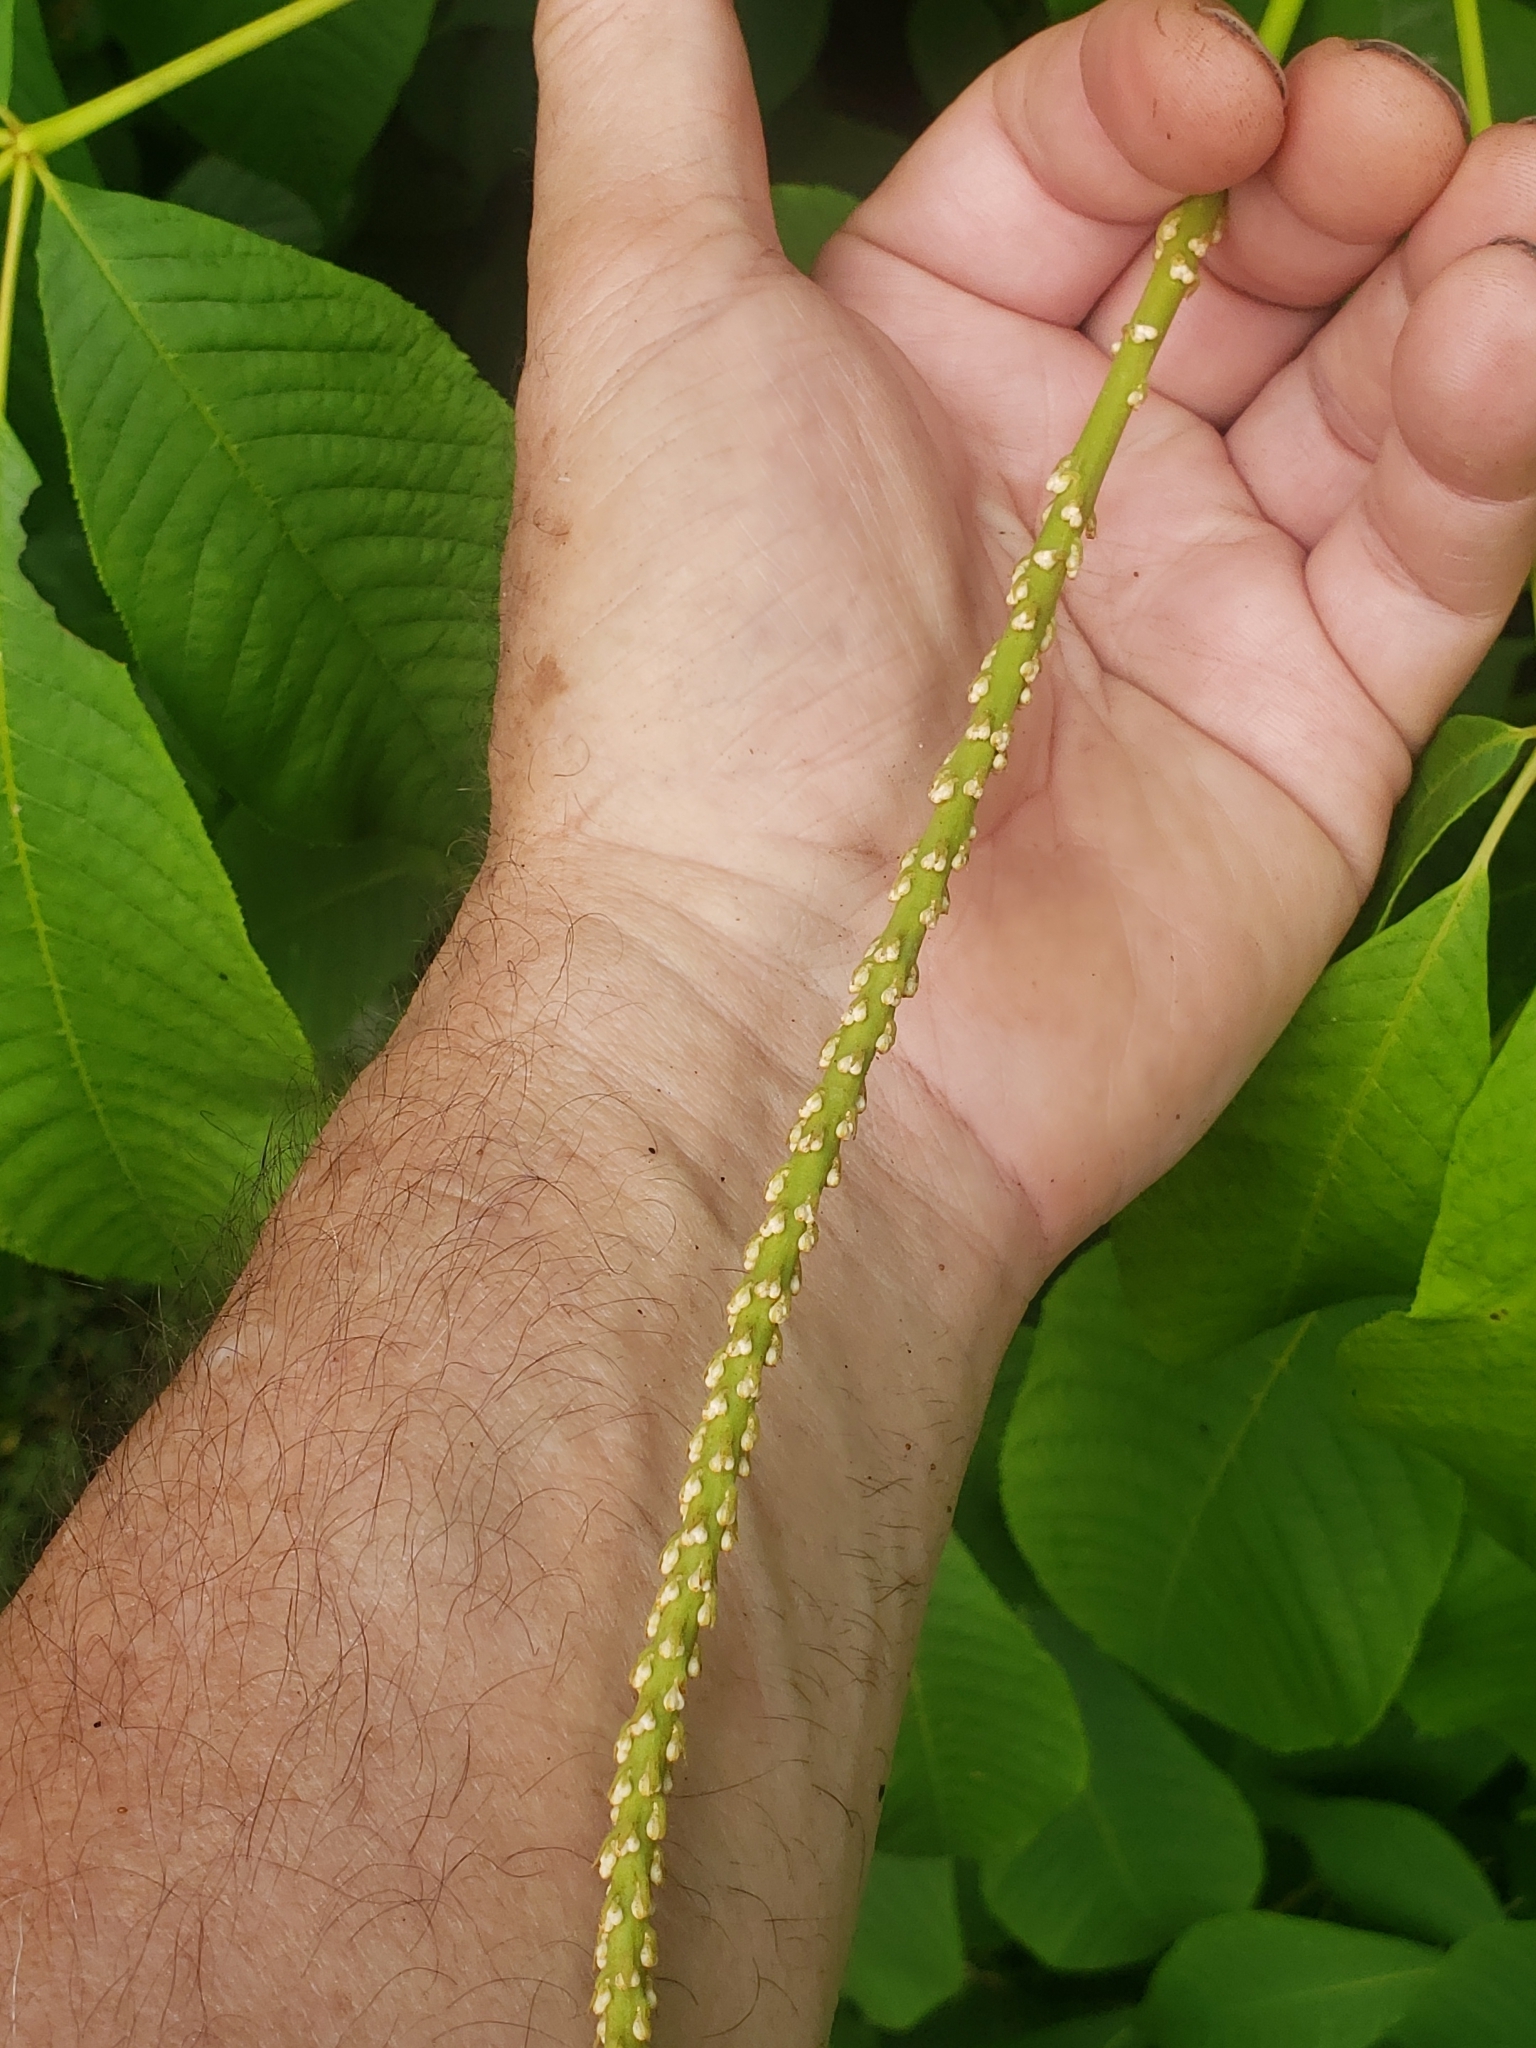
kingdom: Plantae
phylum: Tracheophyta
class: Magnoliopsida
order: Sapindales
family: Sapindaceae
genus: Aesculus
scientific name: Aesculus parviflora
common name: Bottlebrush buckeye
